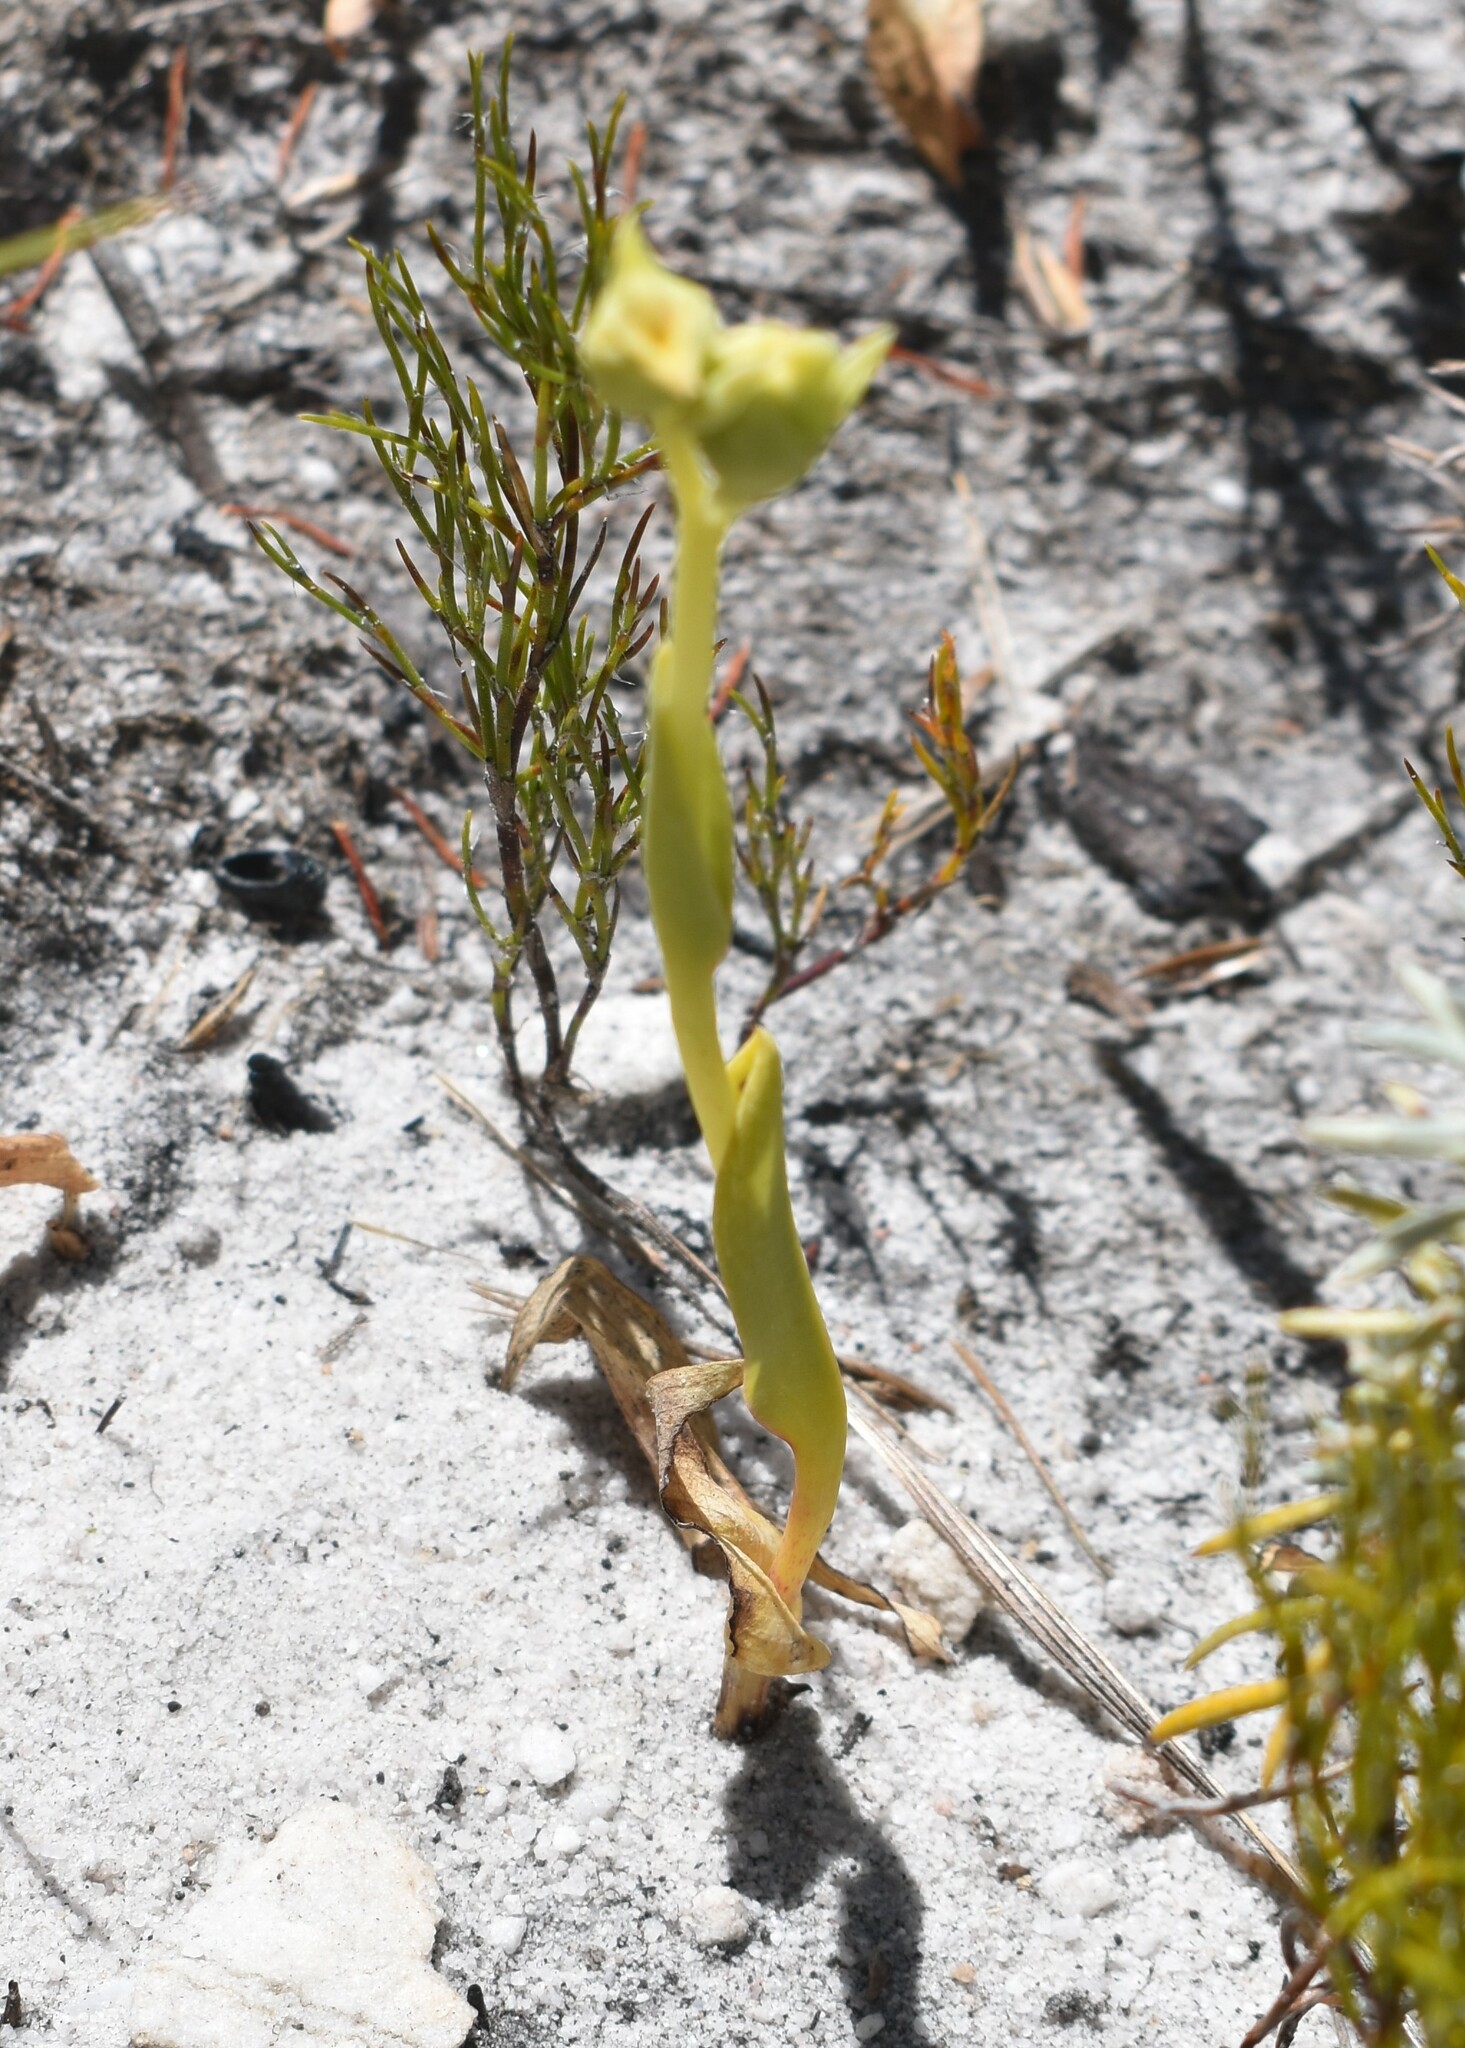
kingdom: Plantae
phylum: Tracheophyta
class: Liliopsida
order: Asparagales
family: Orchidaceae
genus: Pterygodium
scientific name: Pterygodium catholicum
